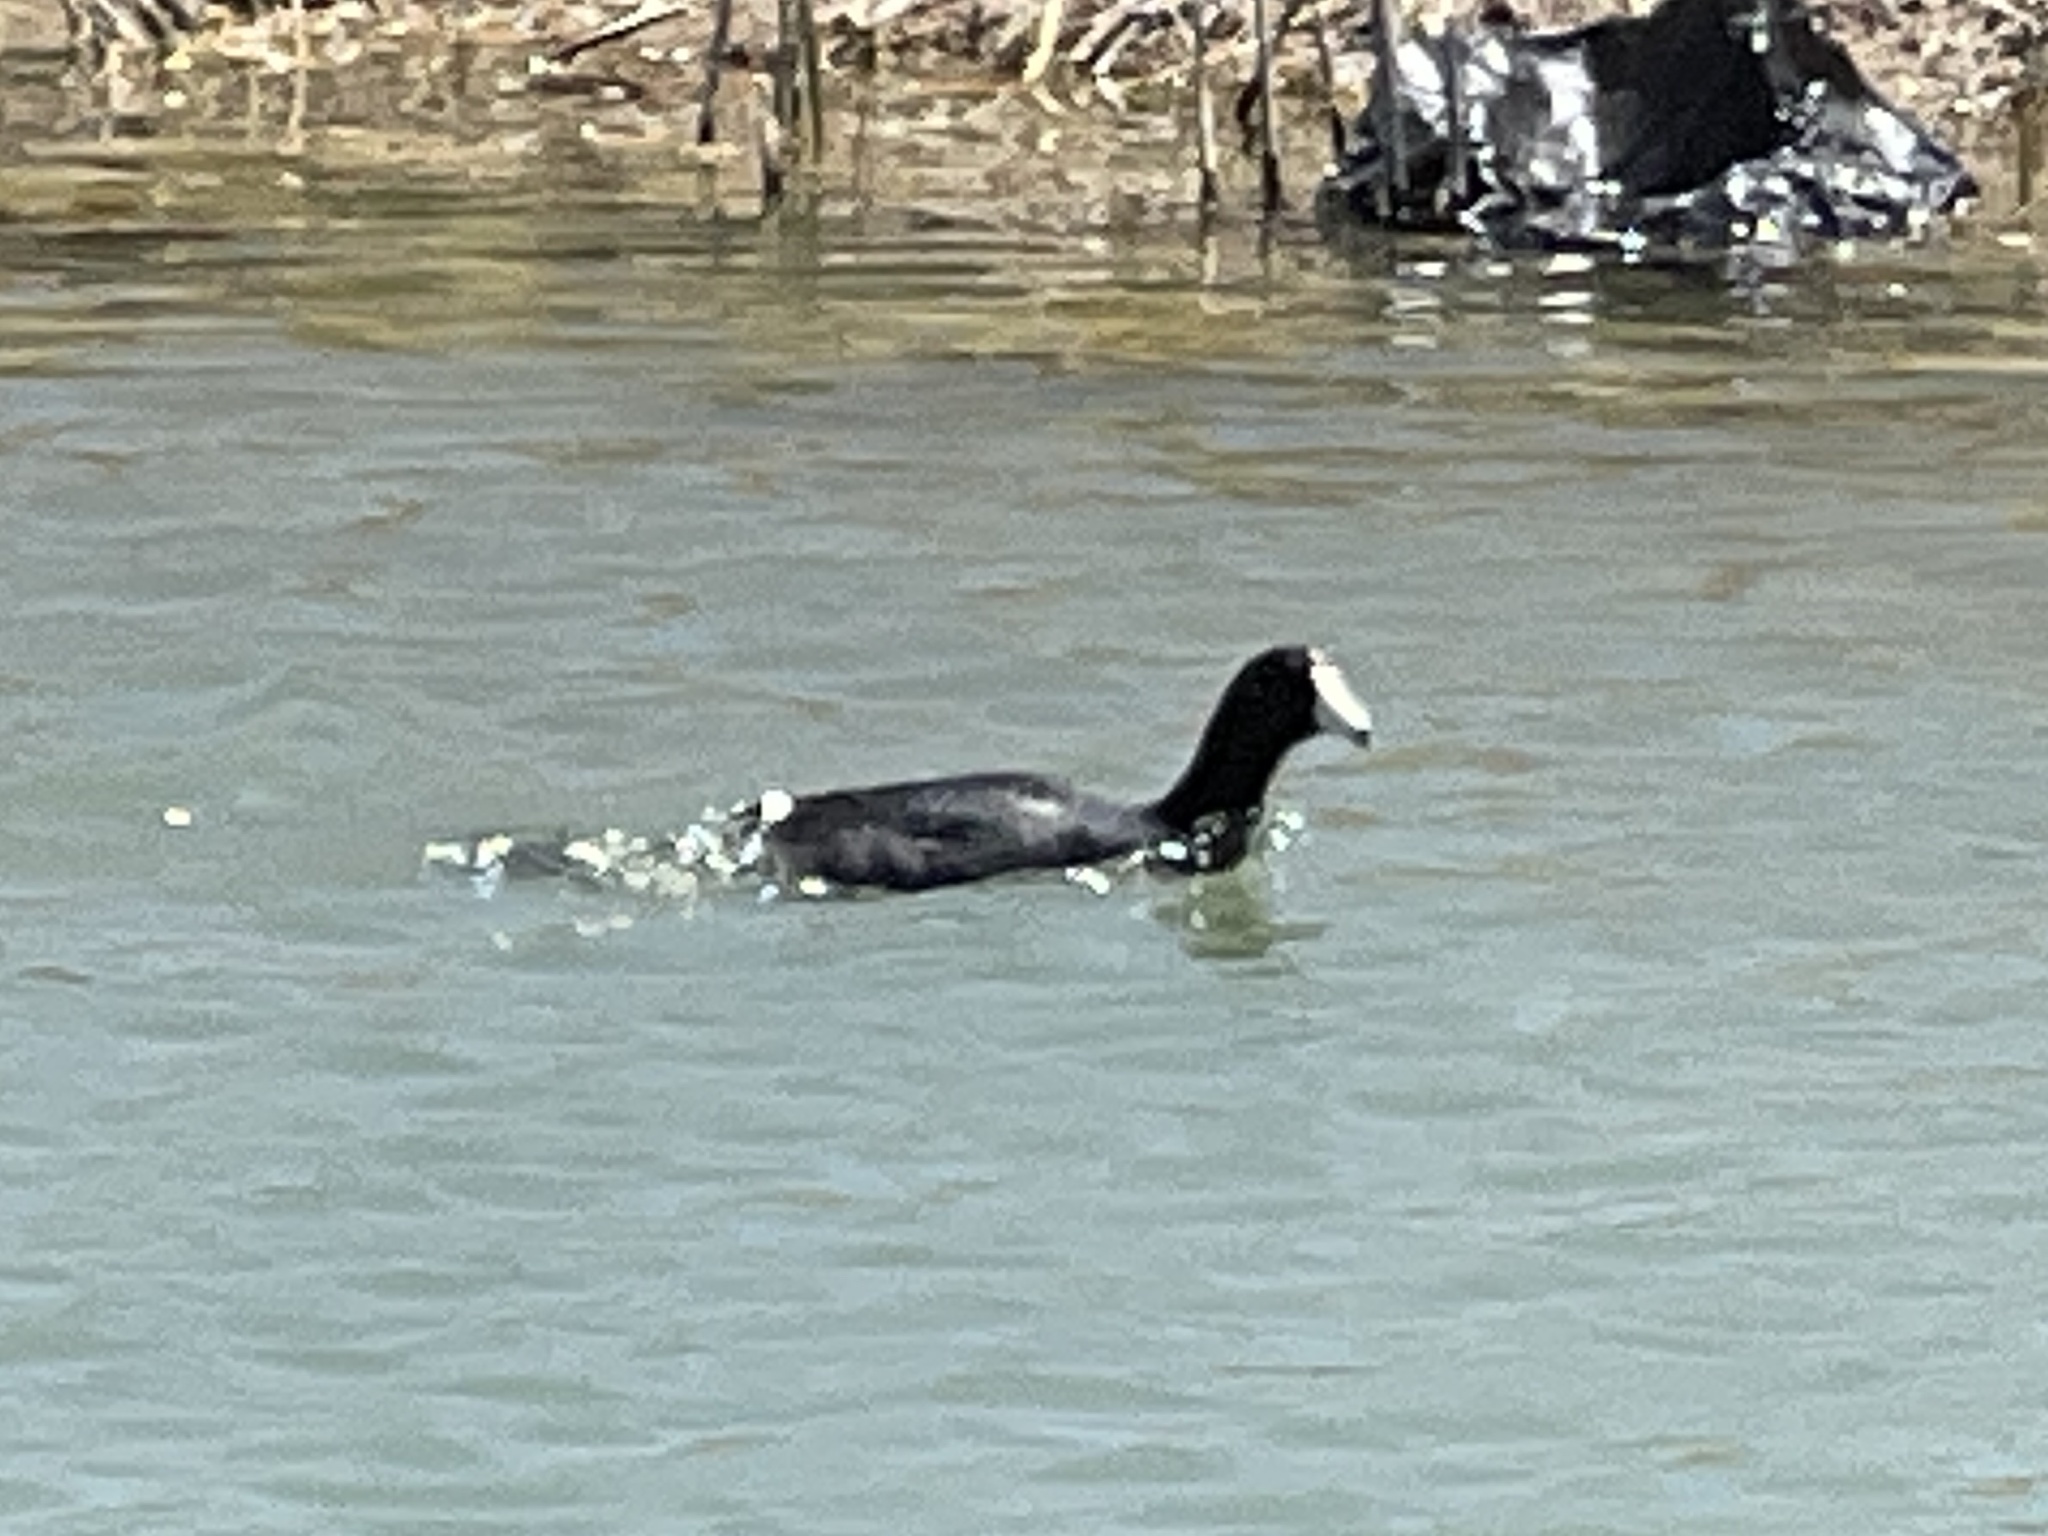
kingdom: Animalia
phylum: Chordata
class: Aves
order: Gruiformes
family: Rallidae
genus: Fulica
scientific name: Fulica americana
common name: American coot
